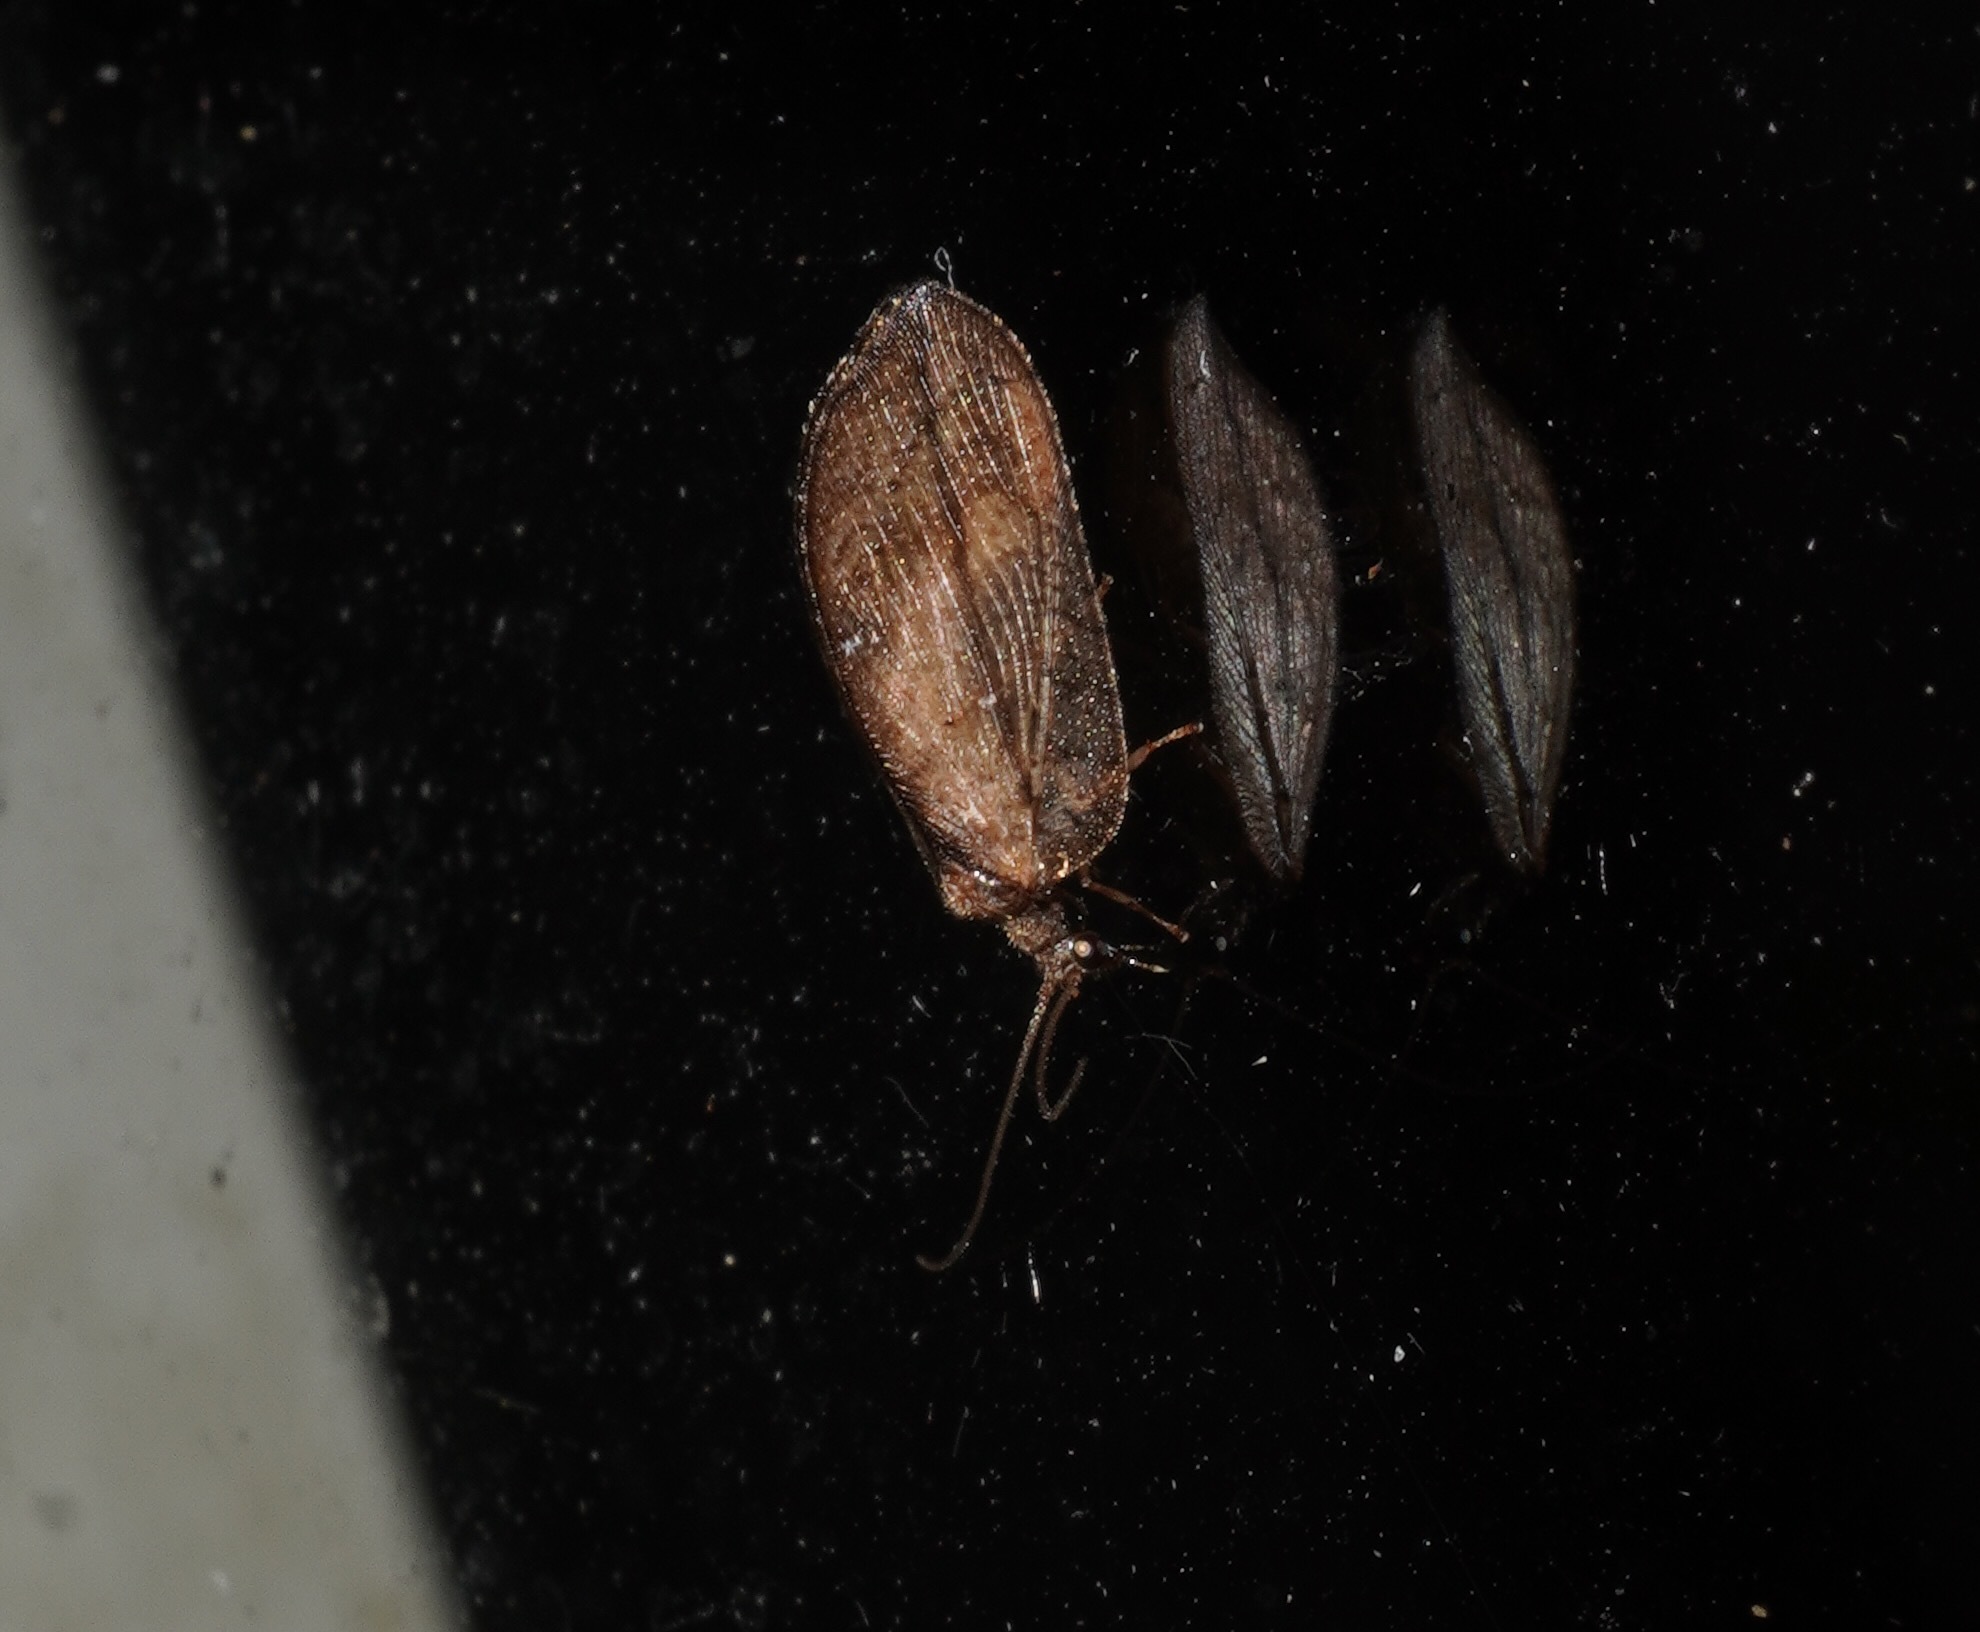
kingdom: Animalia
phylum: Arthropoda
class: Insecta
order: Neuroptera
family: Hemerobiidae
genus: Drepanacra
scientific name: Drepanacra binocula
